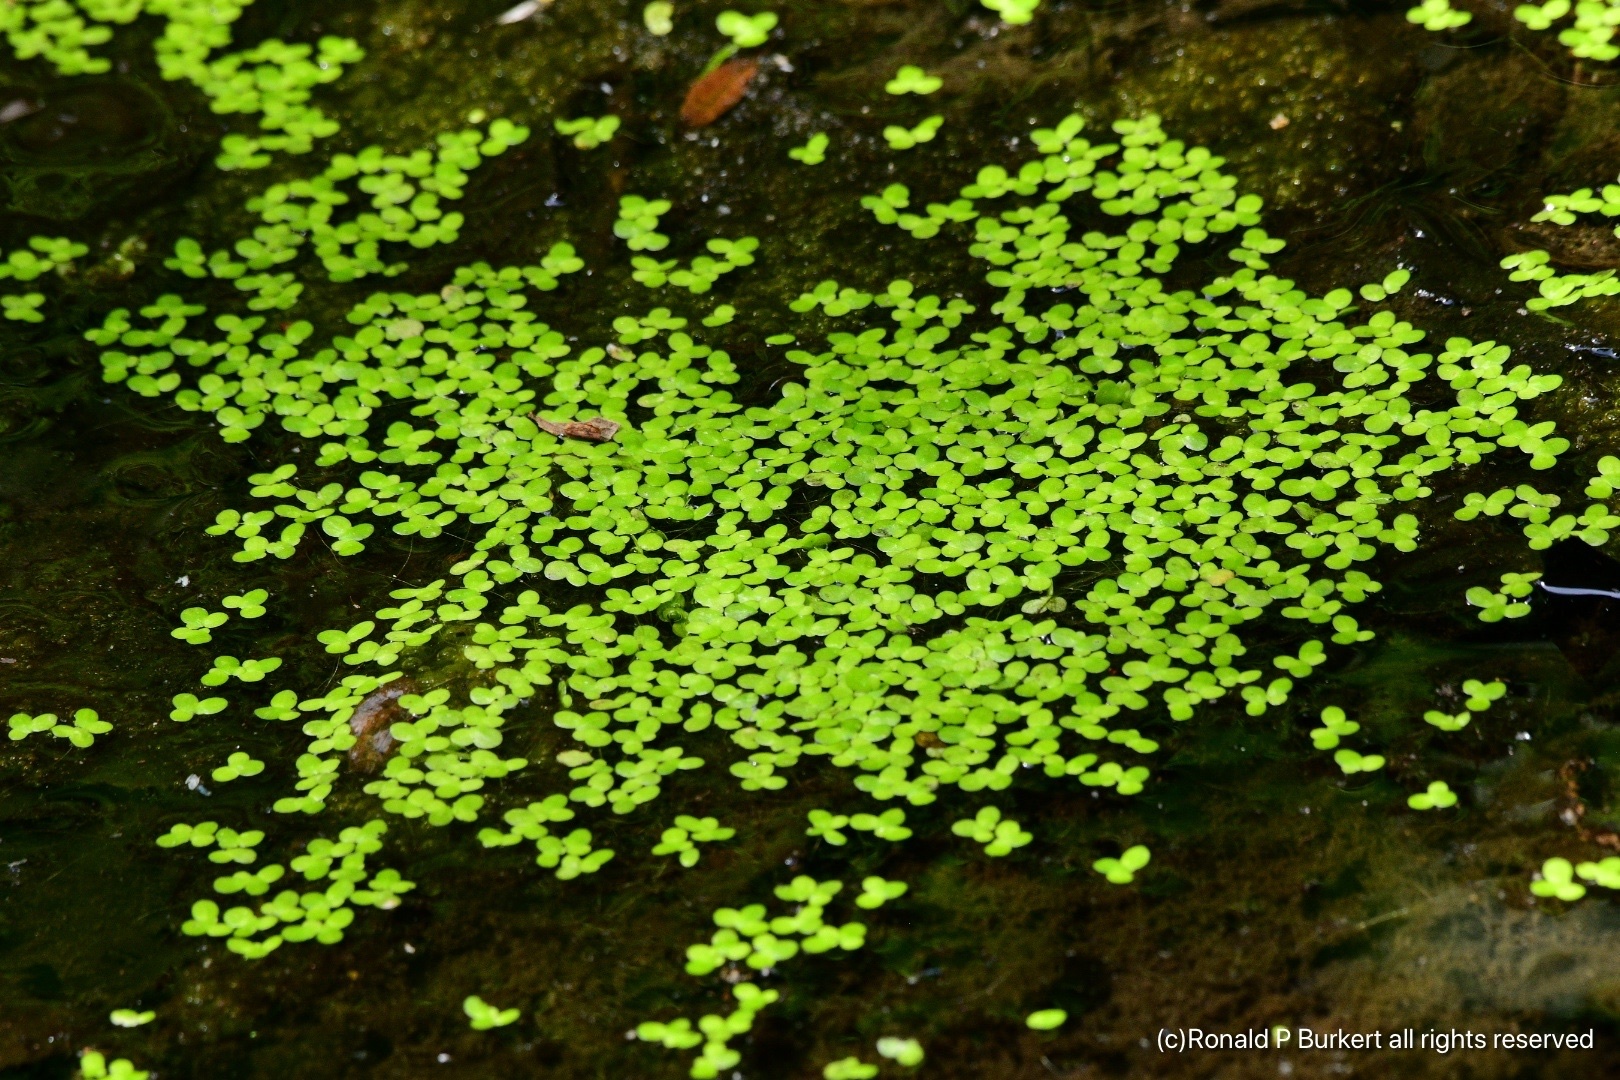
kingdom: Plantae
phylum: Tracheophyta
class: Liliopsida
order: Alismatales
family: Araceae
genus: Lemna
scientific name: Lemna minor
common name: Common duckweed
